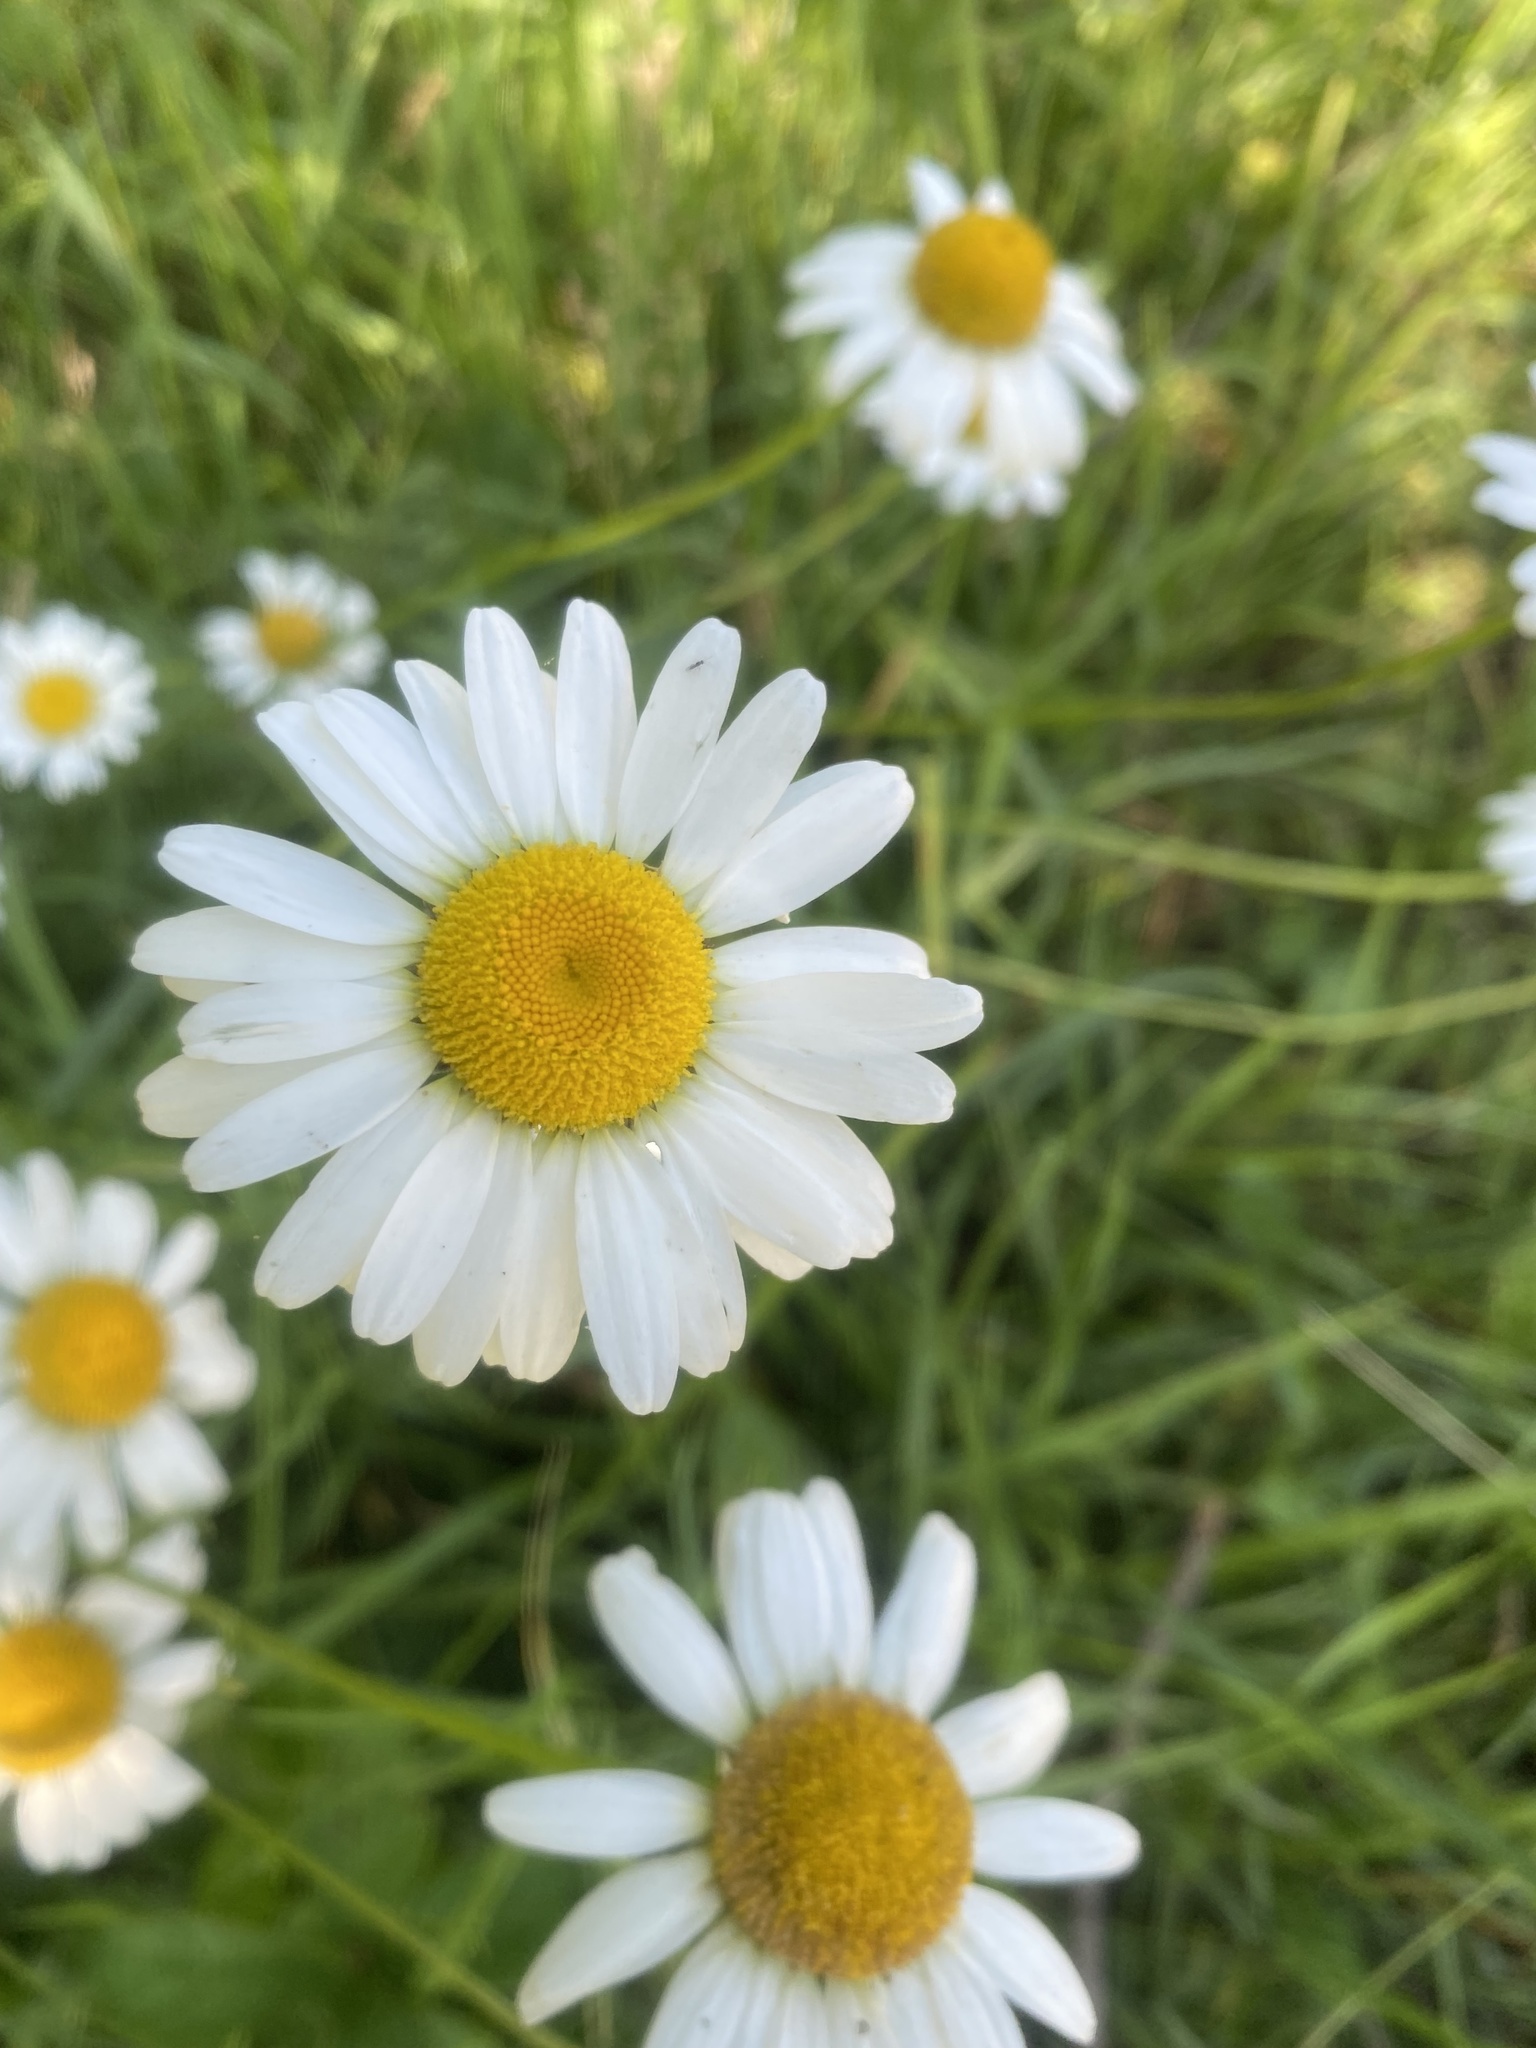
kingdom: Plantae
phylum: Tracheophyta
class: Magnoliopsida
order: Asterales
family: Asteraceae
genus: Leucanthemum
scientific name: Leucanthemum vulgare
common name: Oxeye daisy
